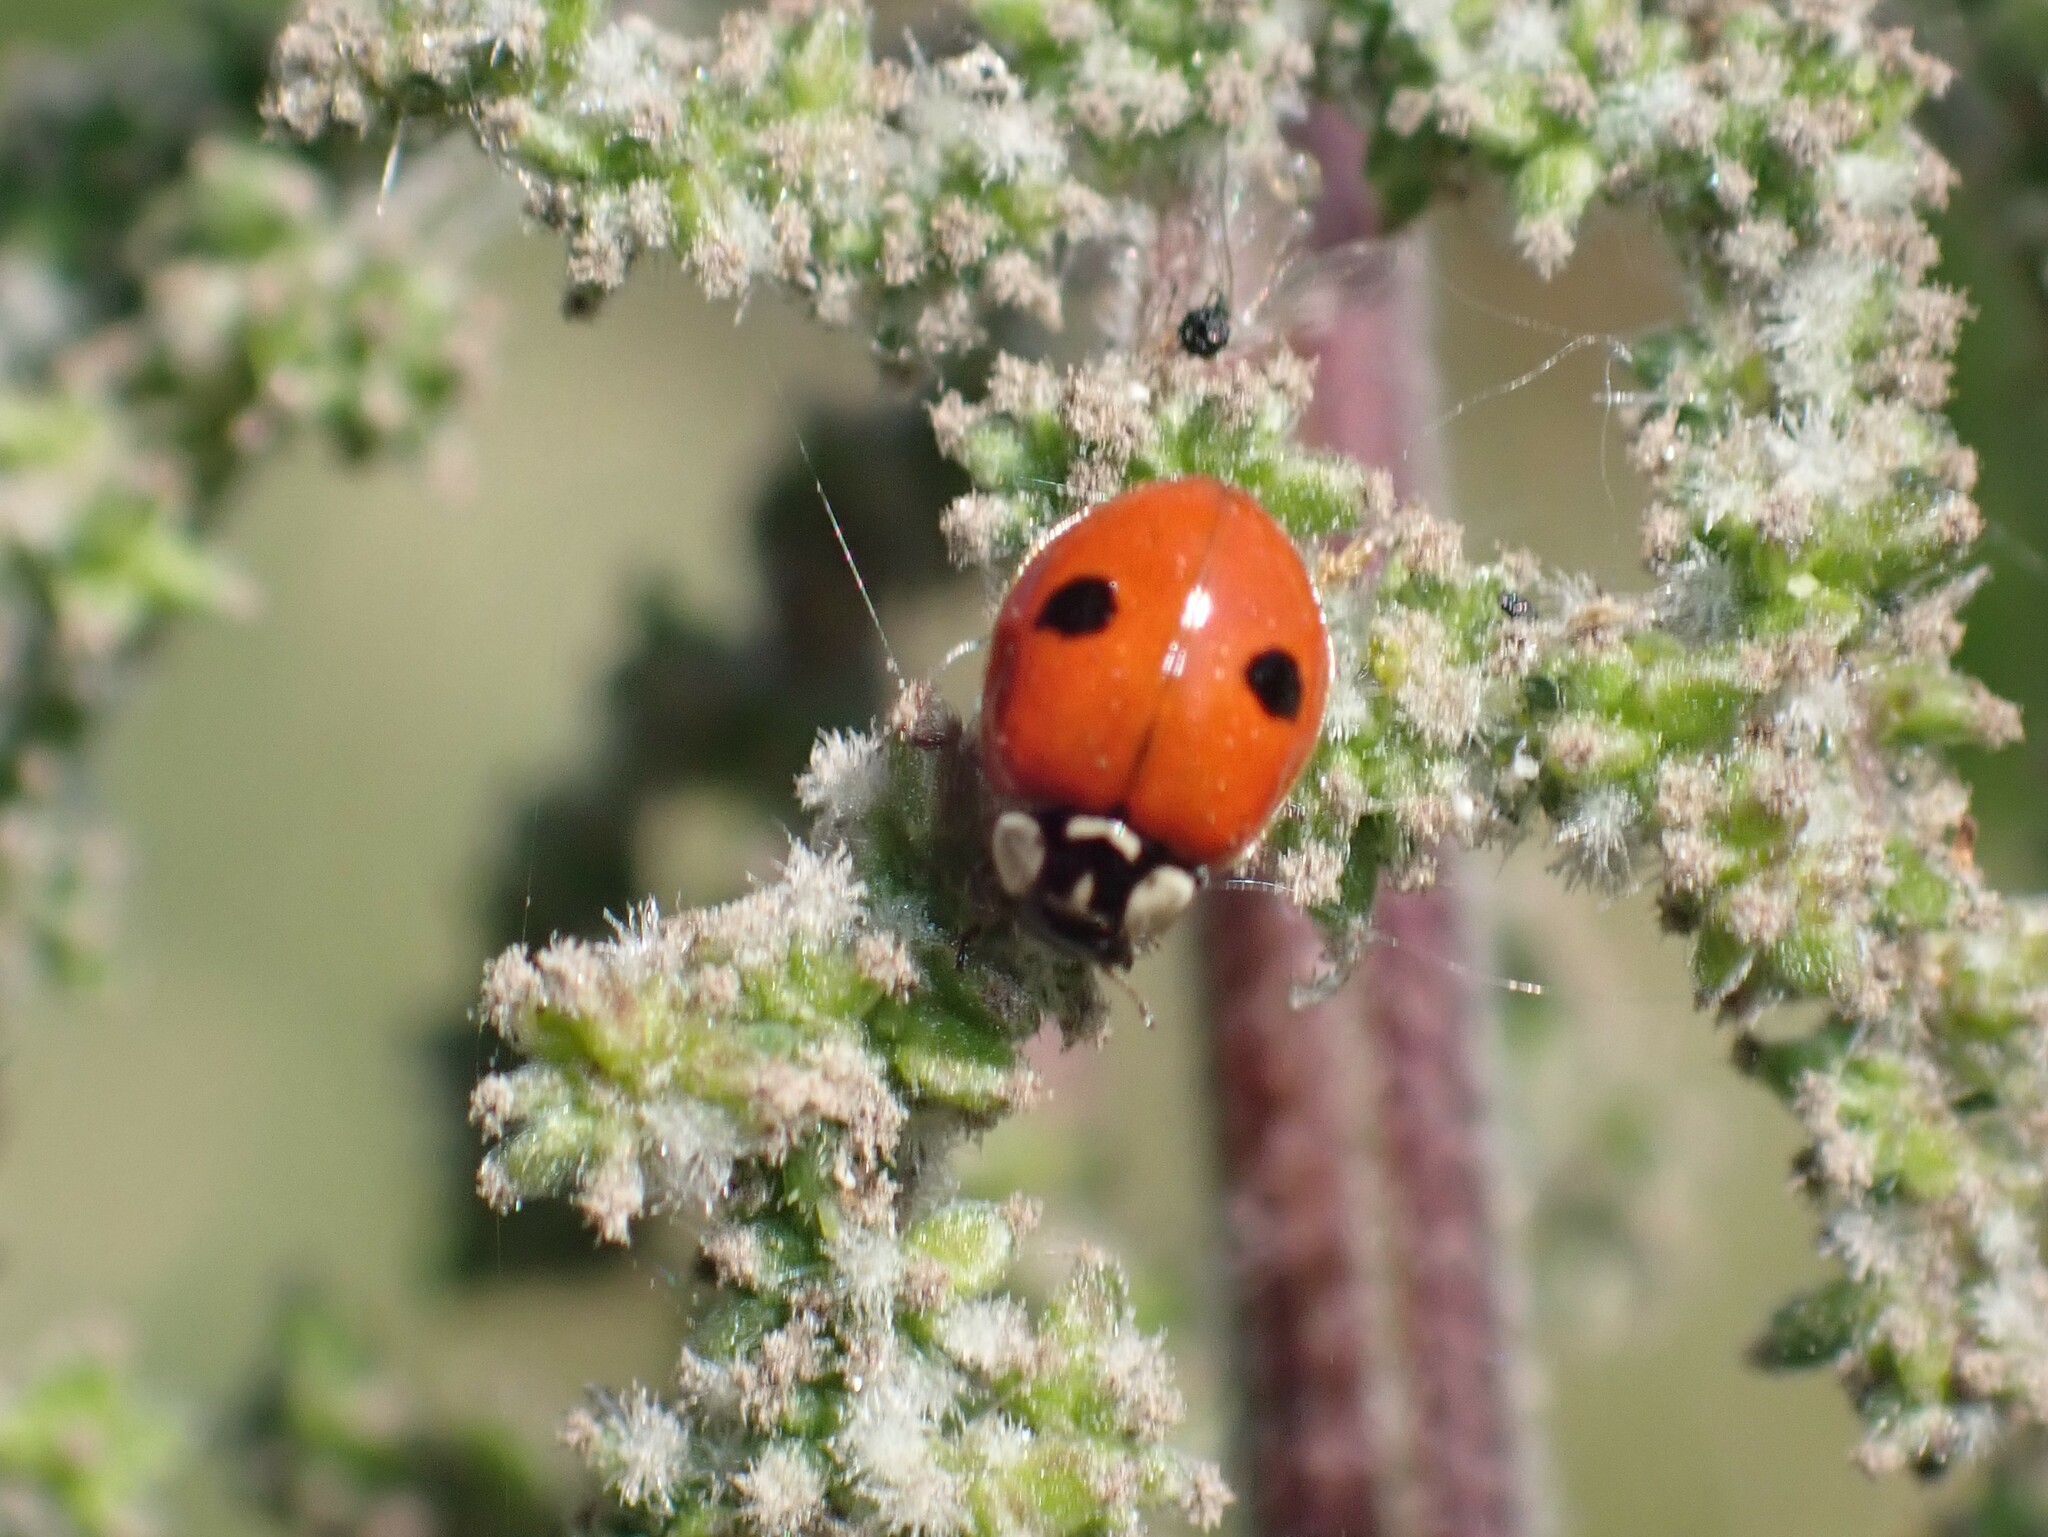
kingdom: Animalia
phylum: Arthropoda
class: Insecta
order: Coleoptera
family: Coccinellidae
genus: Adalia
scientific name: Adalia bipunctata
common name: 2-spot ladybird
